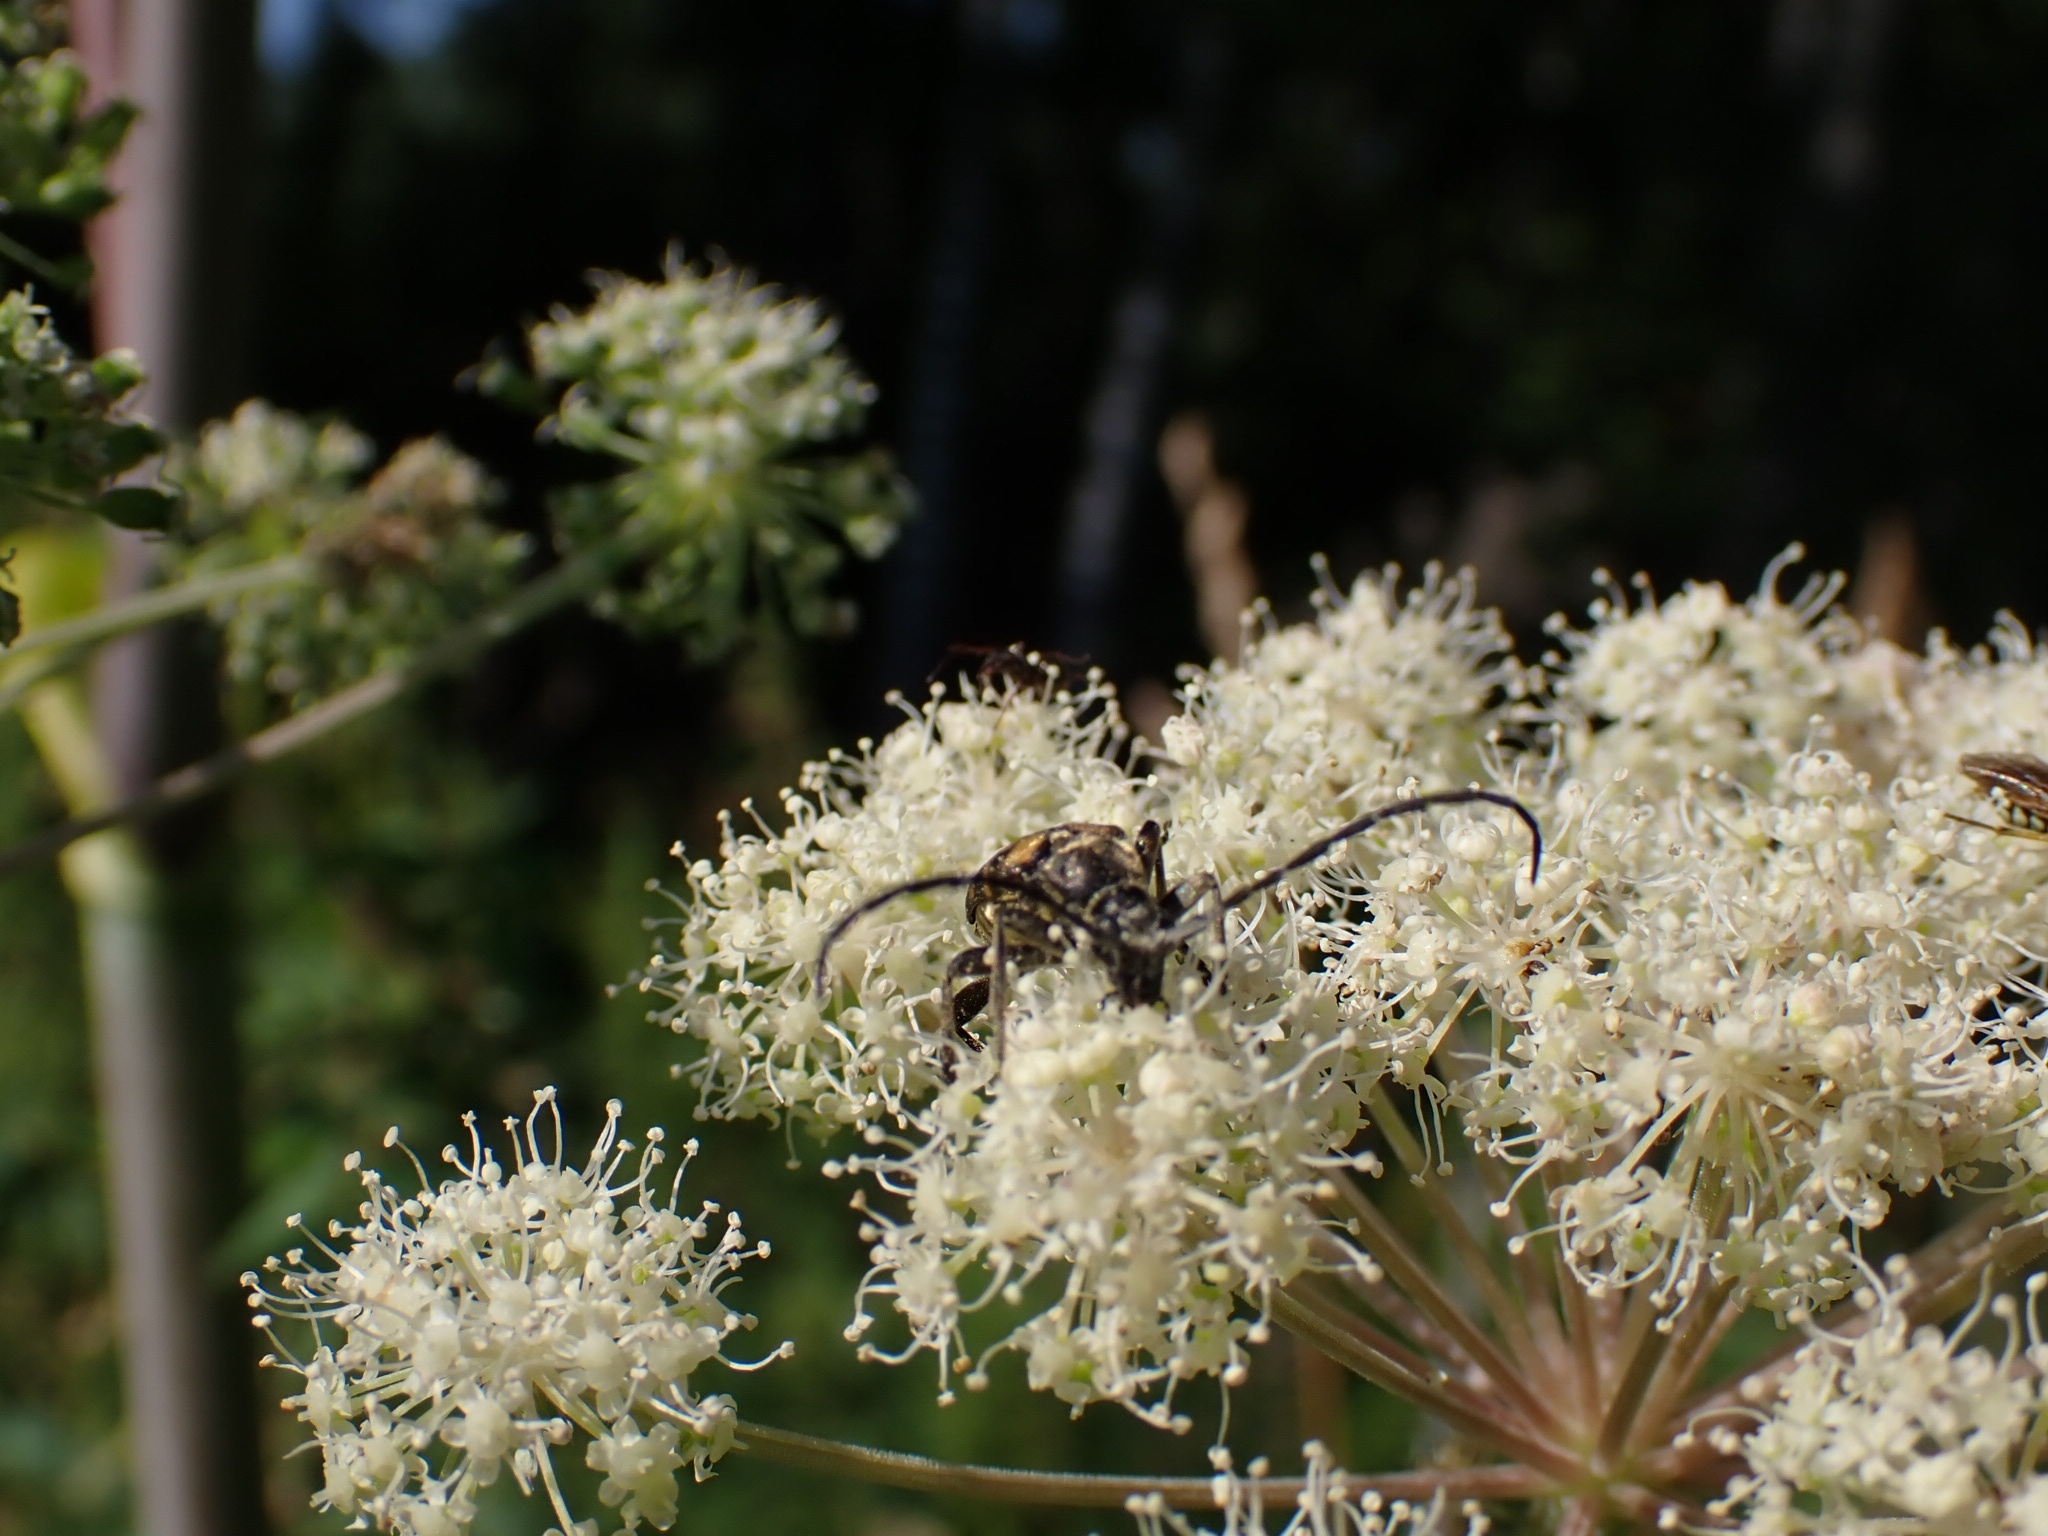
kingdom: Animalia
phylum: Arthropoda
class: Insecta
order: Coleoptera
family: Cerambycidae
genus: Leptura
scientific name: Leptura quadrifasciata
